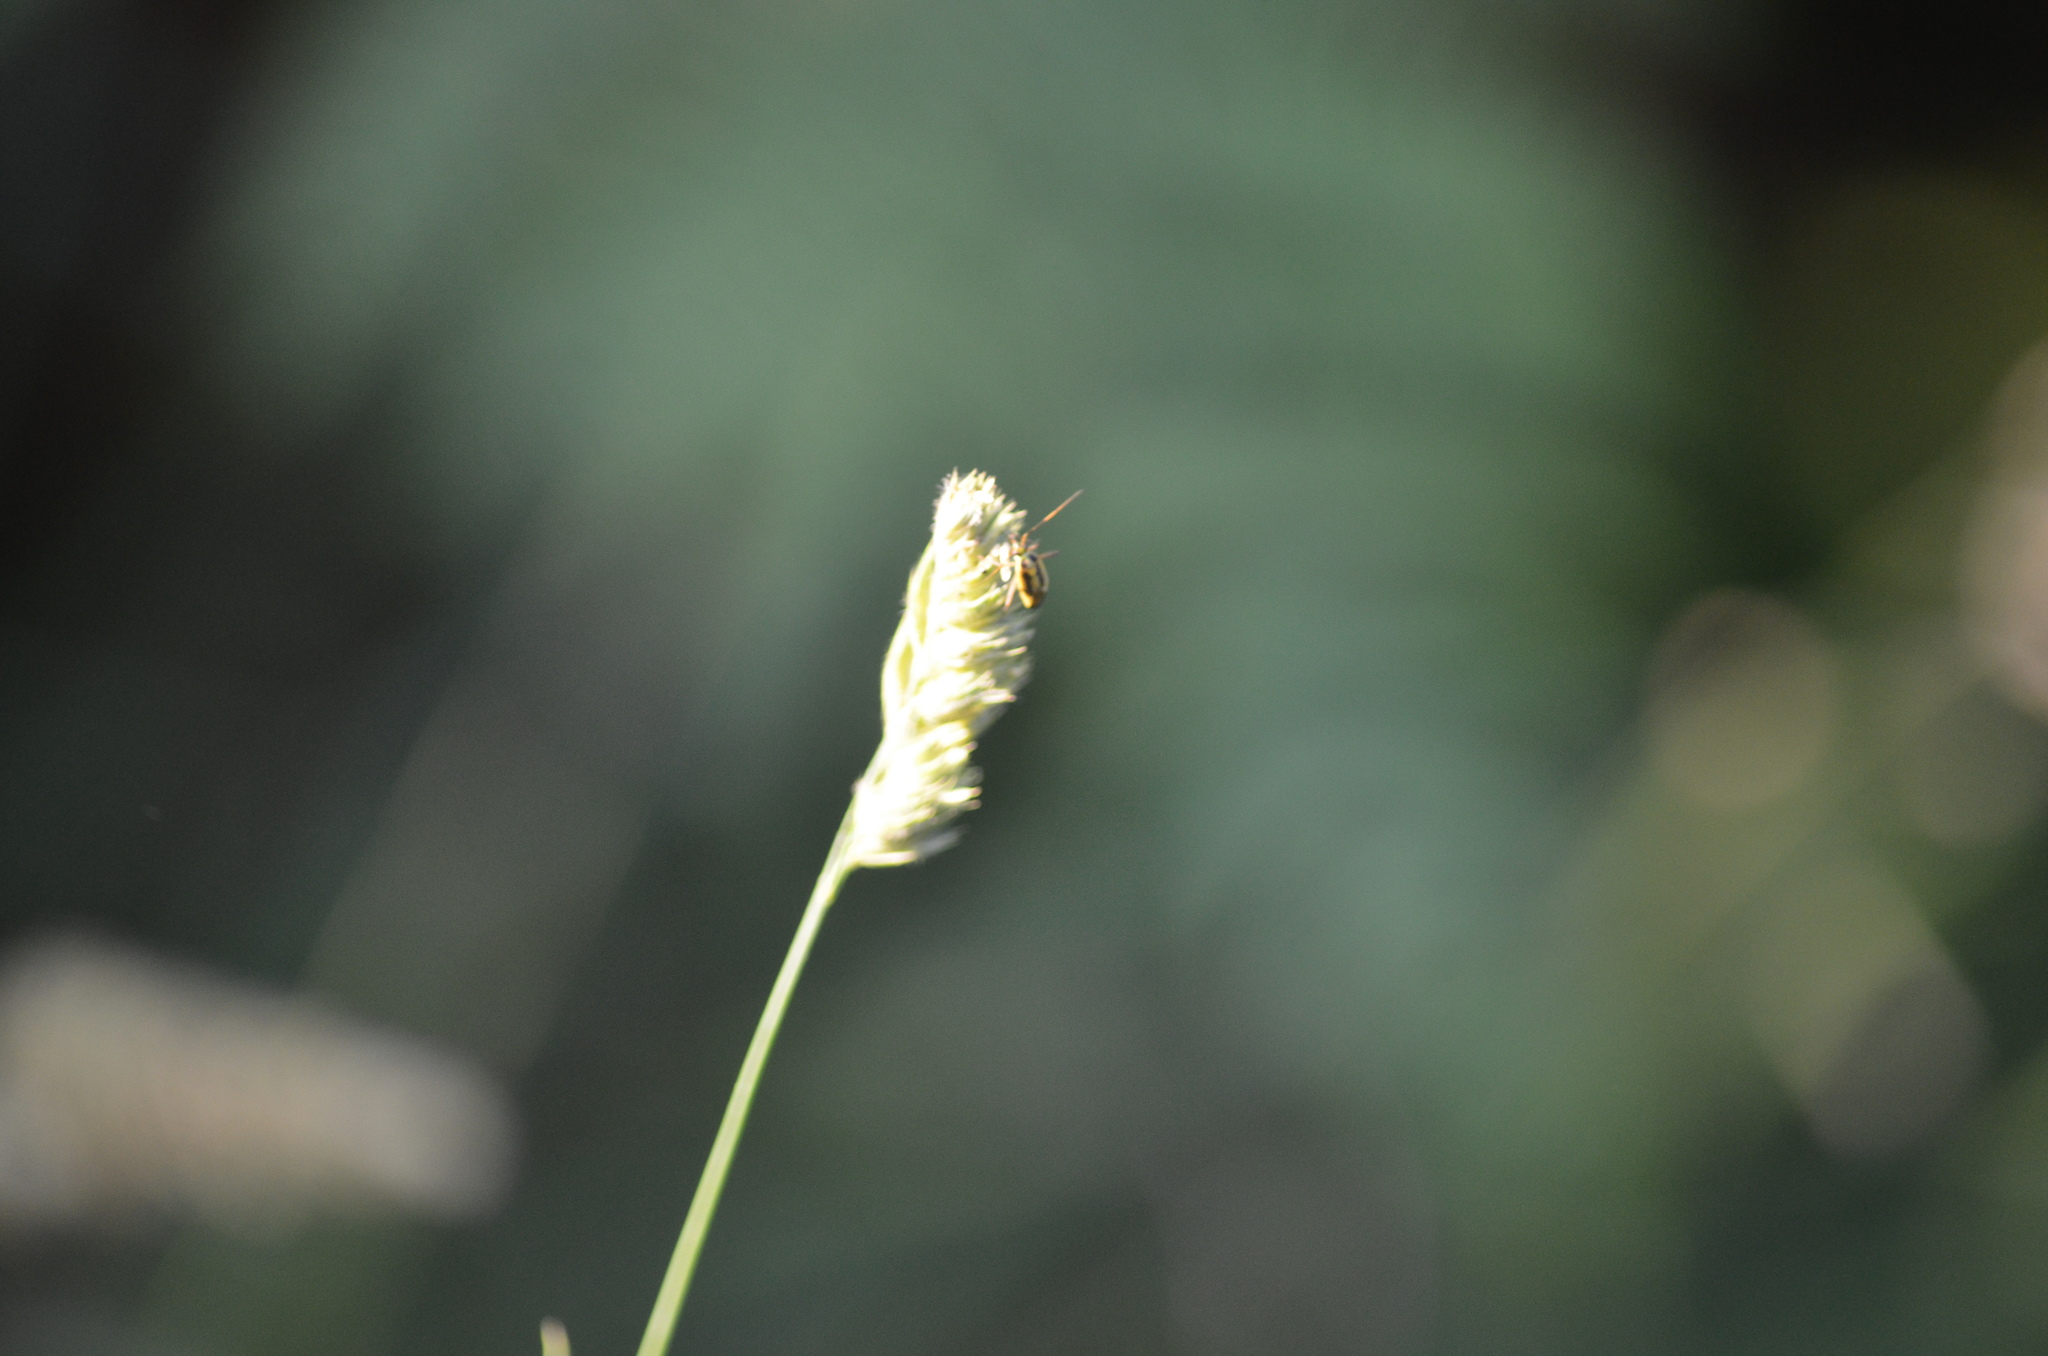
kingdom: Animalia
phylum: Arthropoda
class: Insecta
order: Hemiptera
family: Miridae
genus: Stenotus
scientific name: Stenotus binotatus
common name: Plant bug
